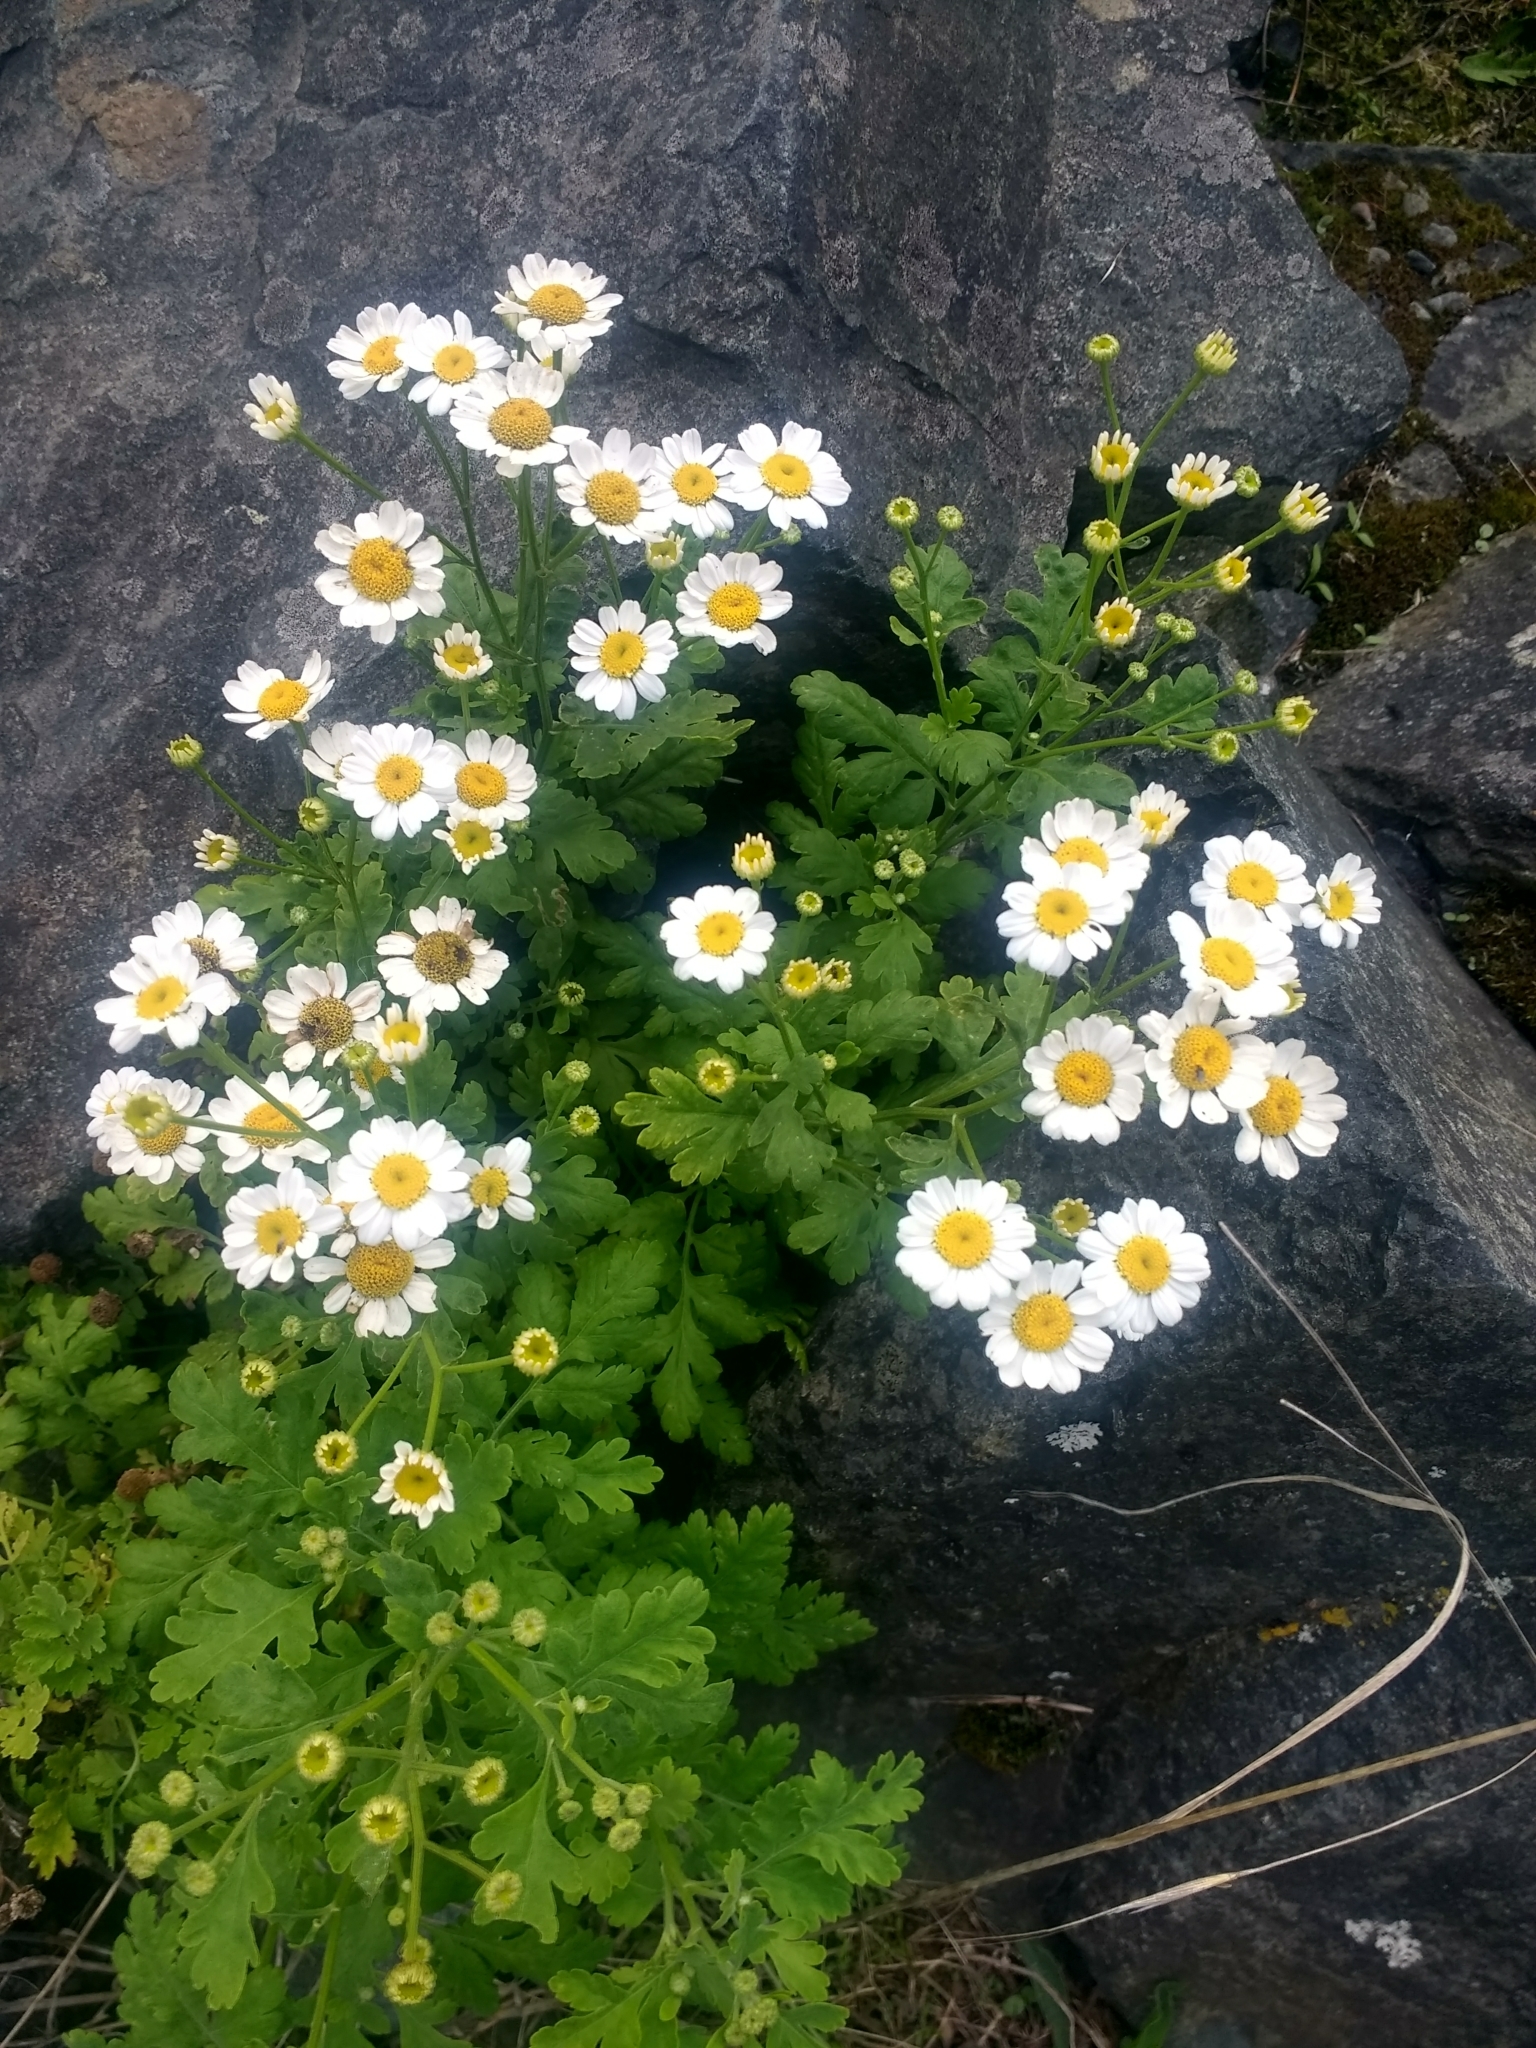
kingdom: Plantae
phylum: Tracheophyta
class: Magnoliopsida
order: Asterales
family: Asteraceae
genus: Tanacetum
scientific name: Tanacetum parthenium
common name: Feverfew
